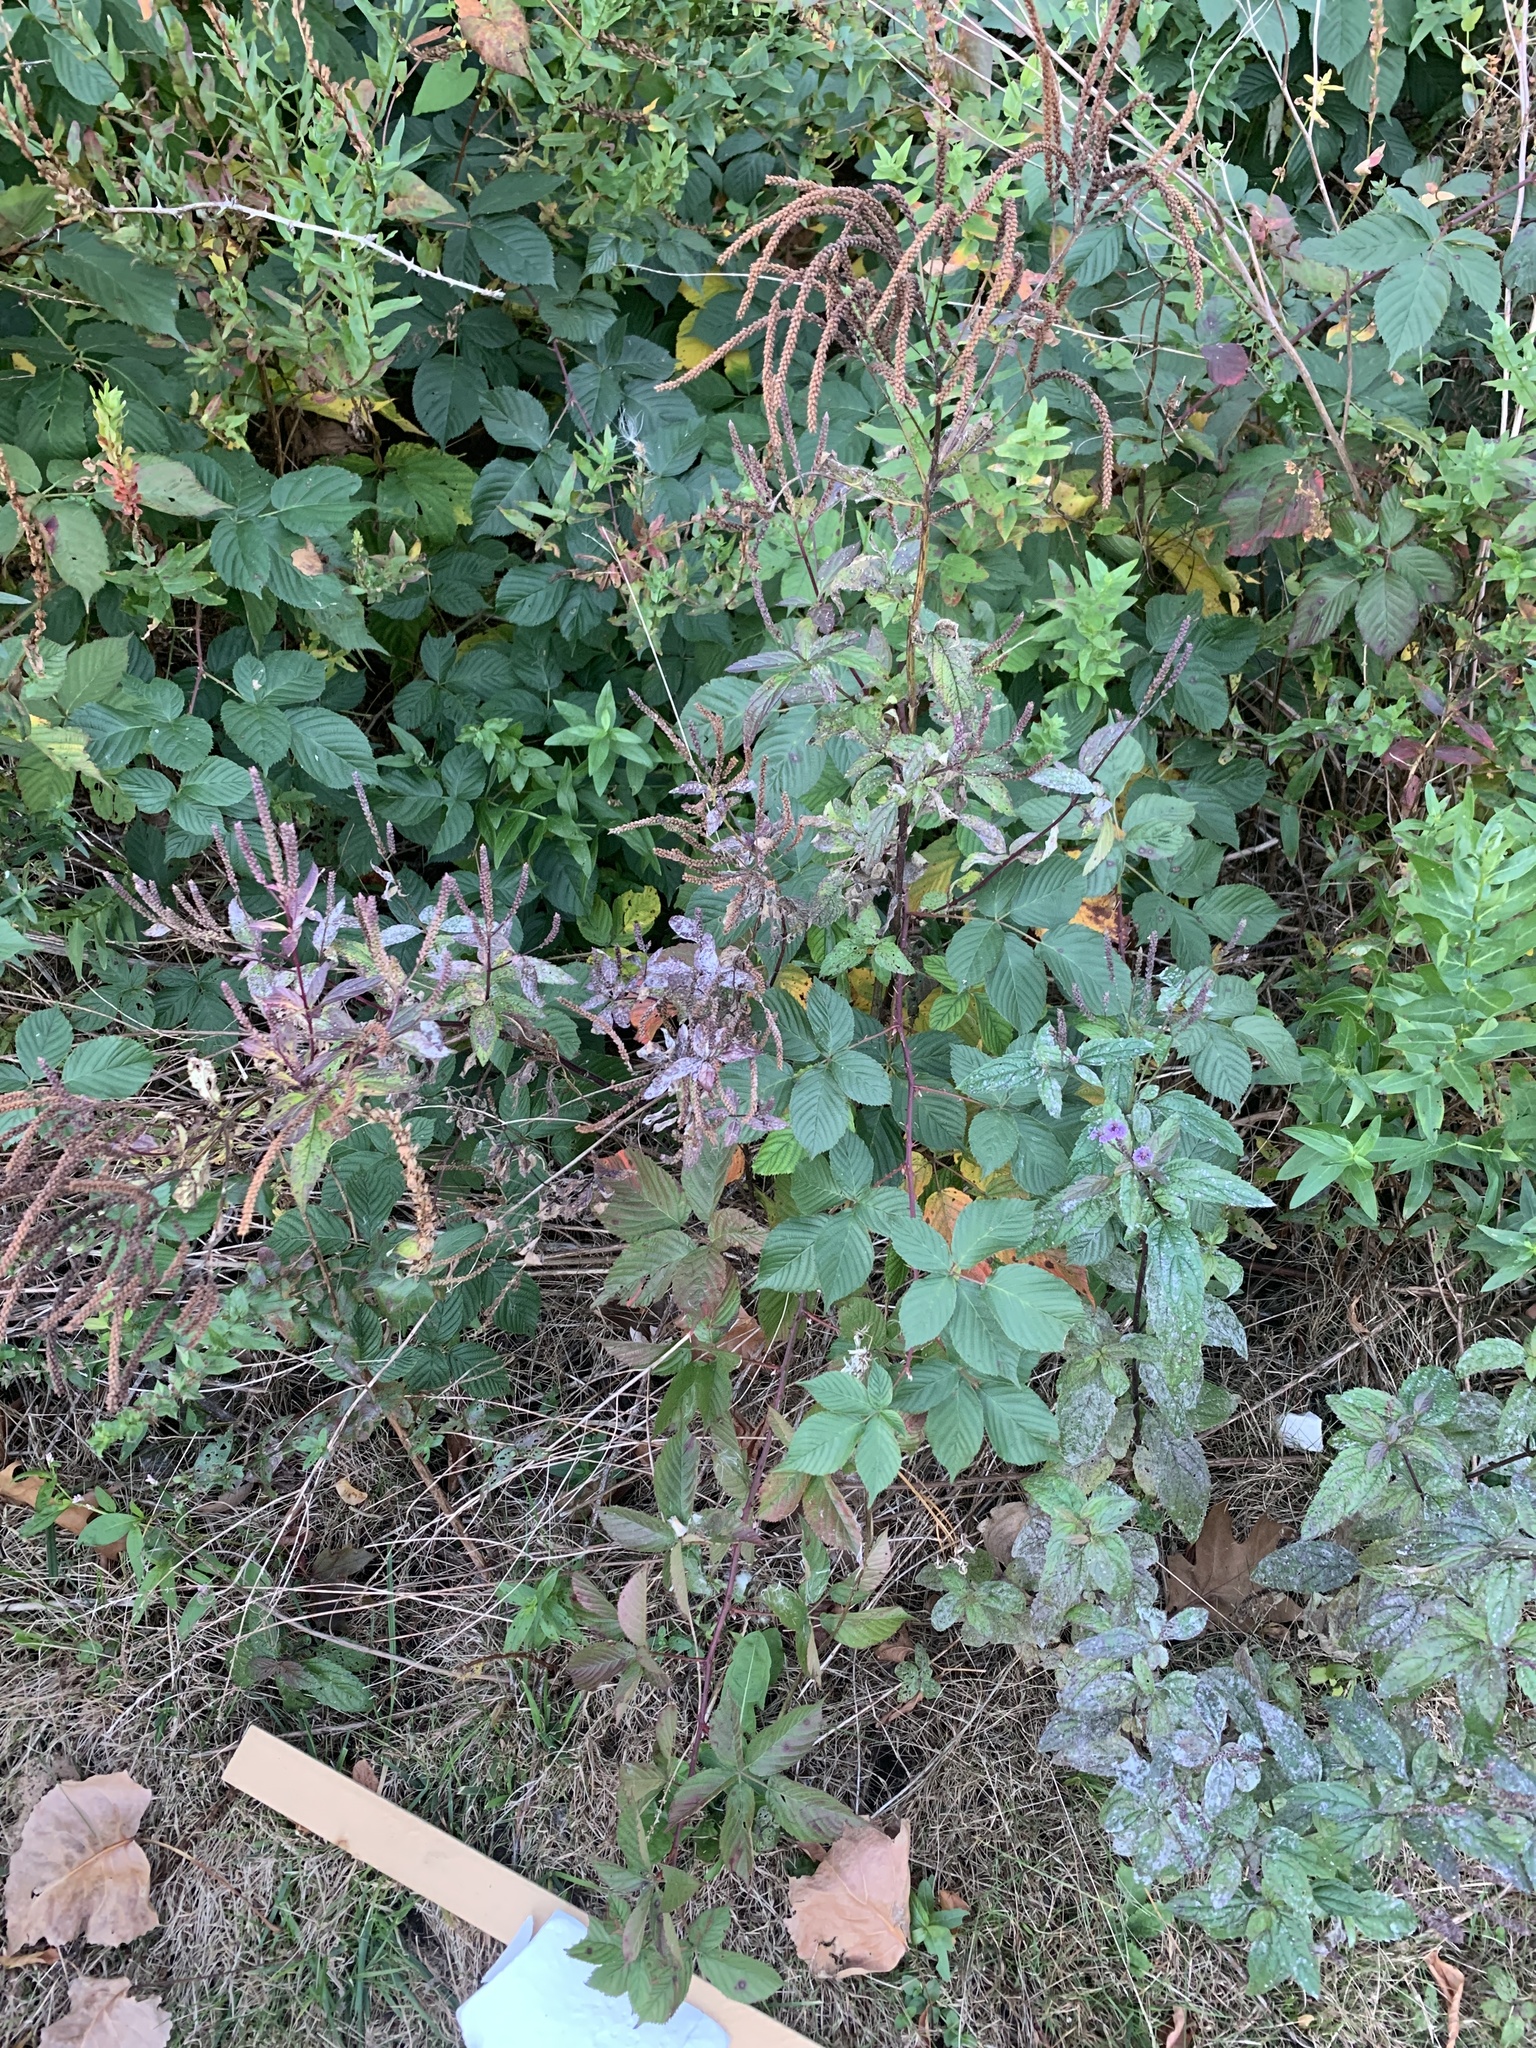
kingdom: Plantae
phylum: Tracheophyta
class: Magnoliopsida
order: Lamiales
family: Verbenaceae
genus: Verbena
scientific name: Verbena hastata
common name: American blue vervain
